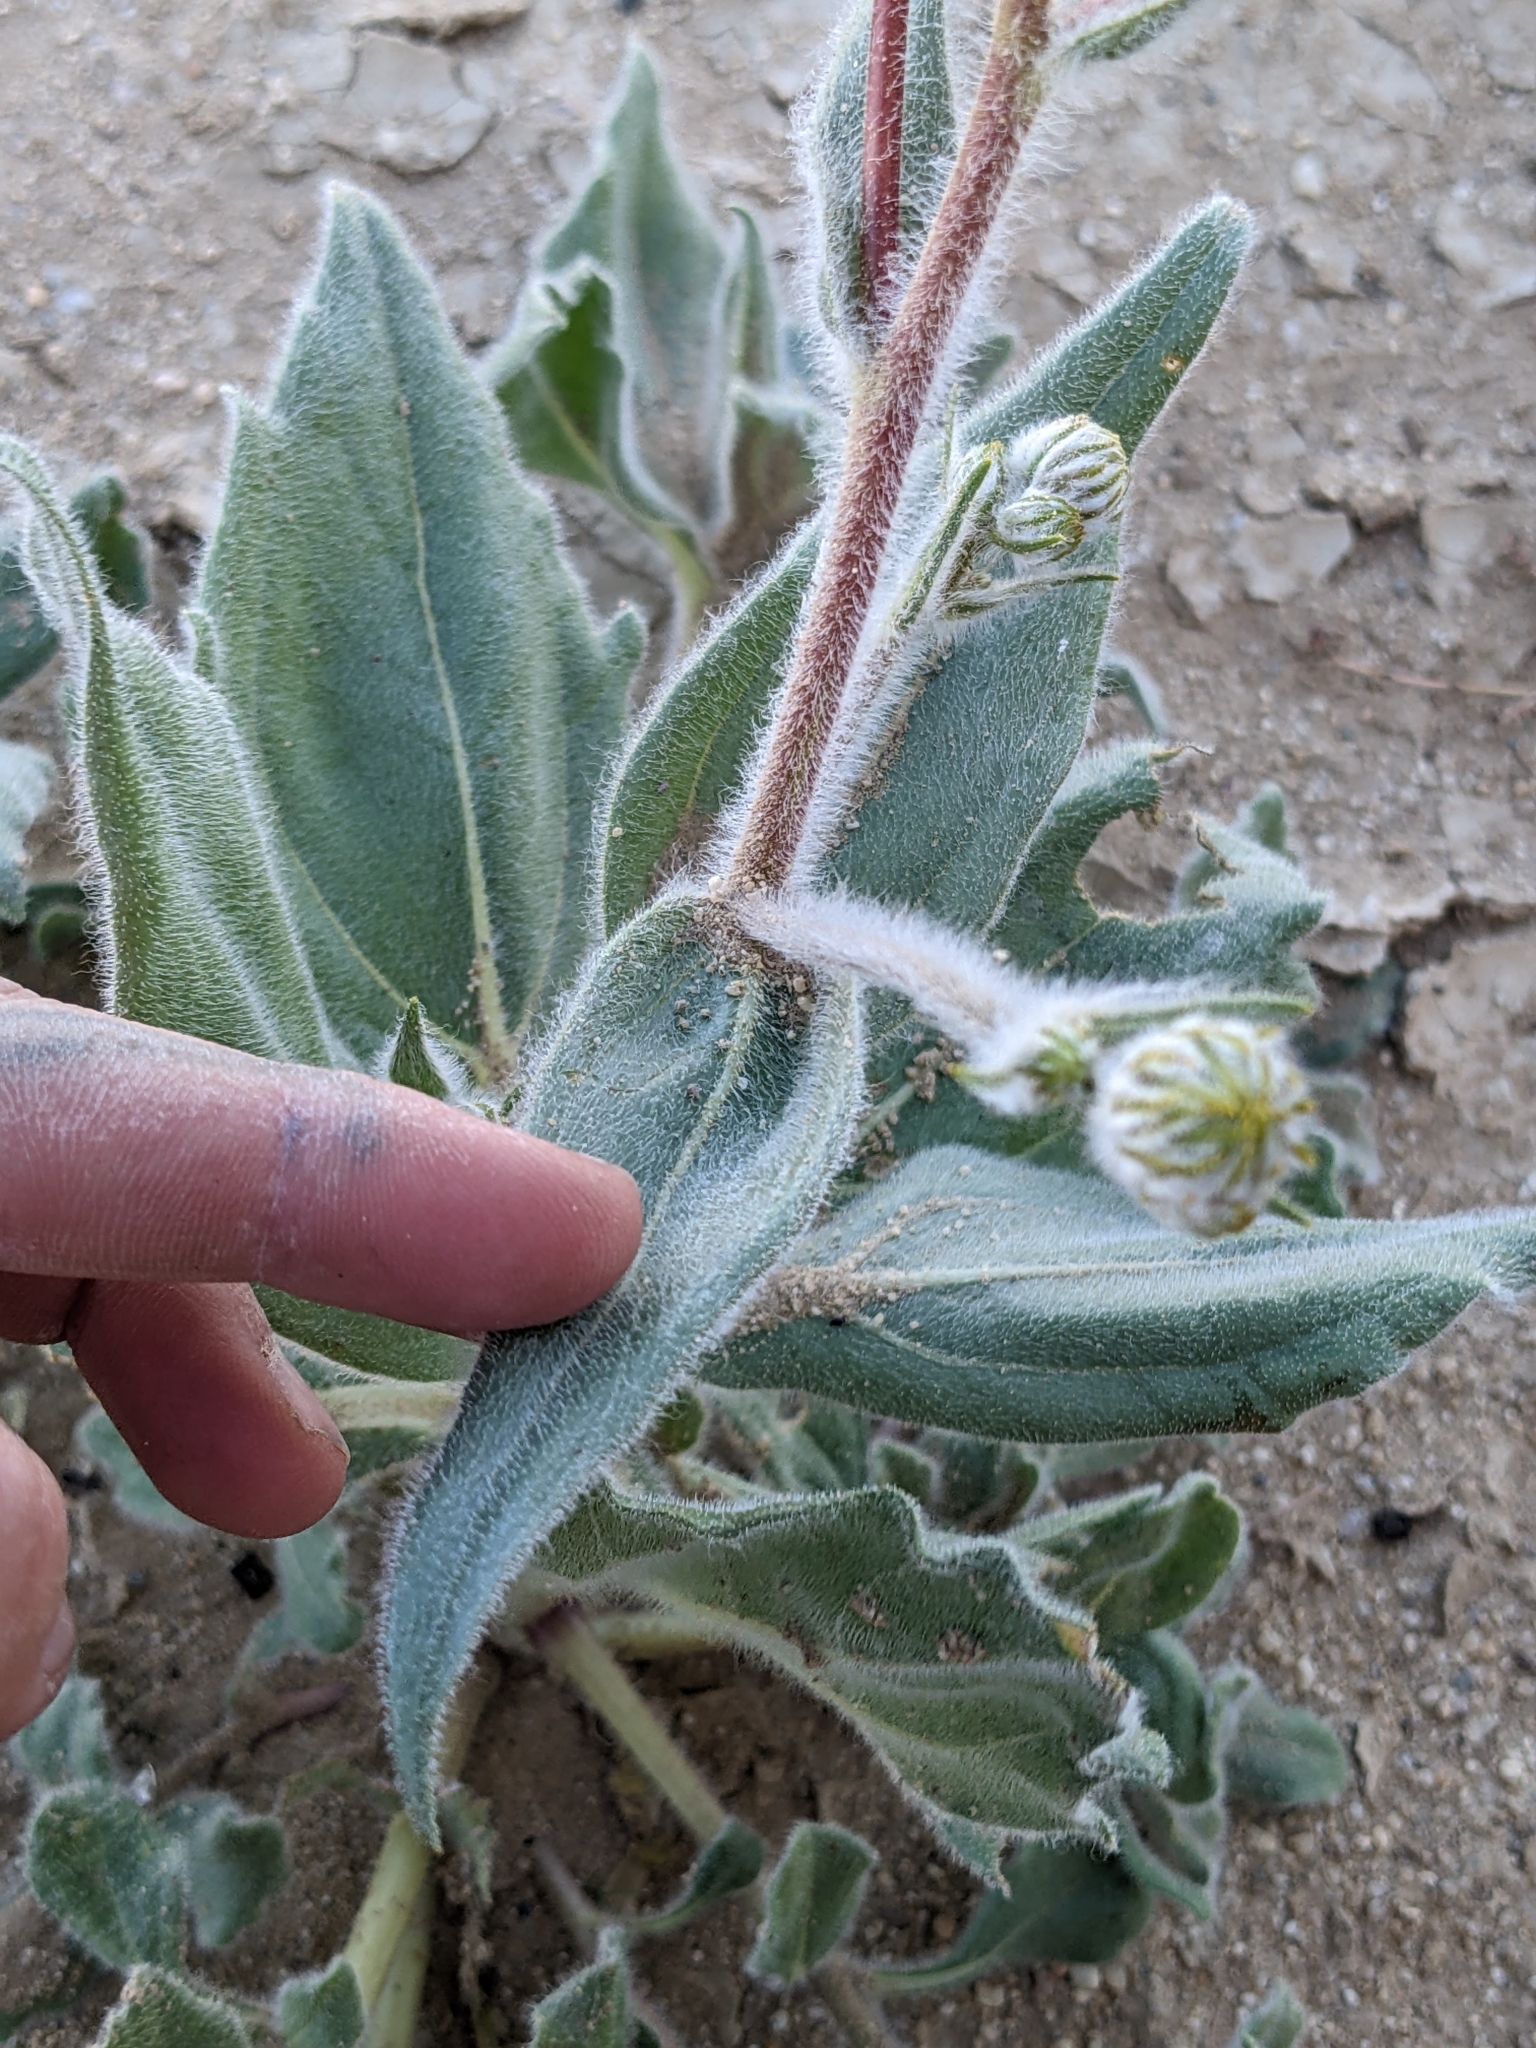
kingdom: Plantae
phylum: Tracheophyta
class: Magnoliopsida
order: Asterales
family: Asteraceae
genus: Geraea
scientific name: Geraea canescens
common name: Desert-gold
